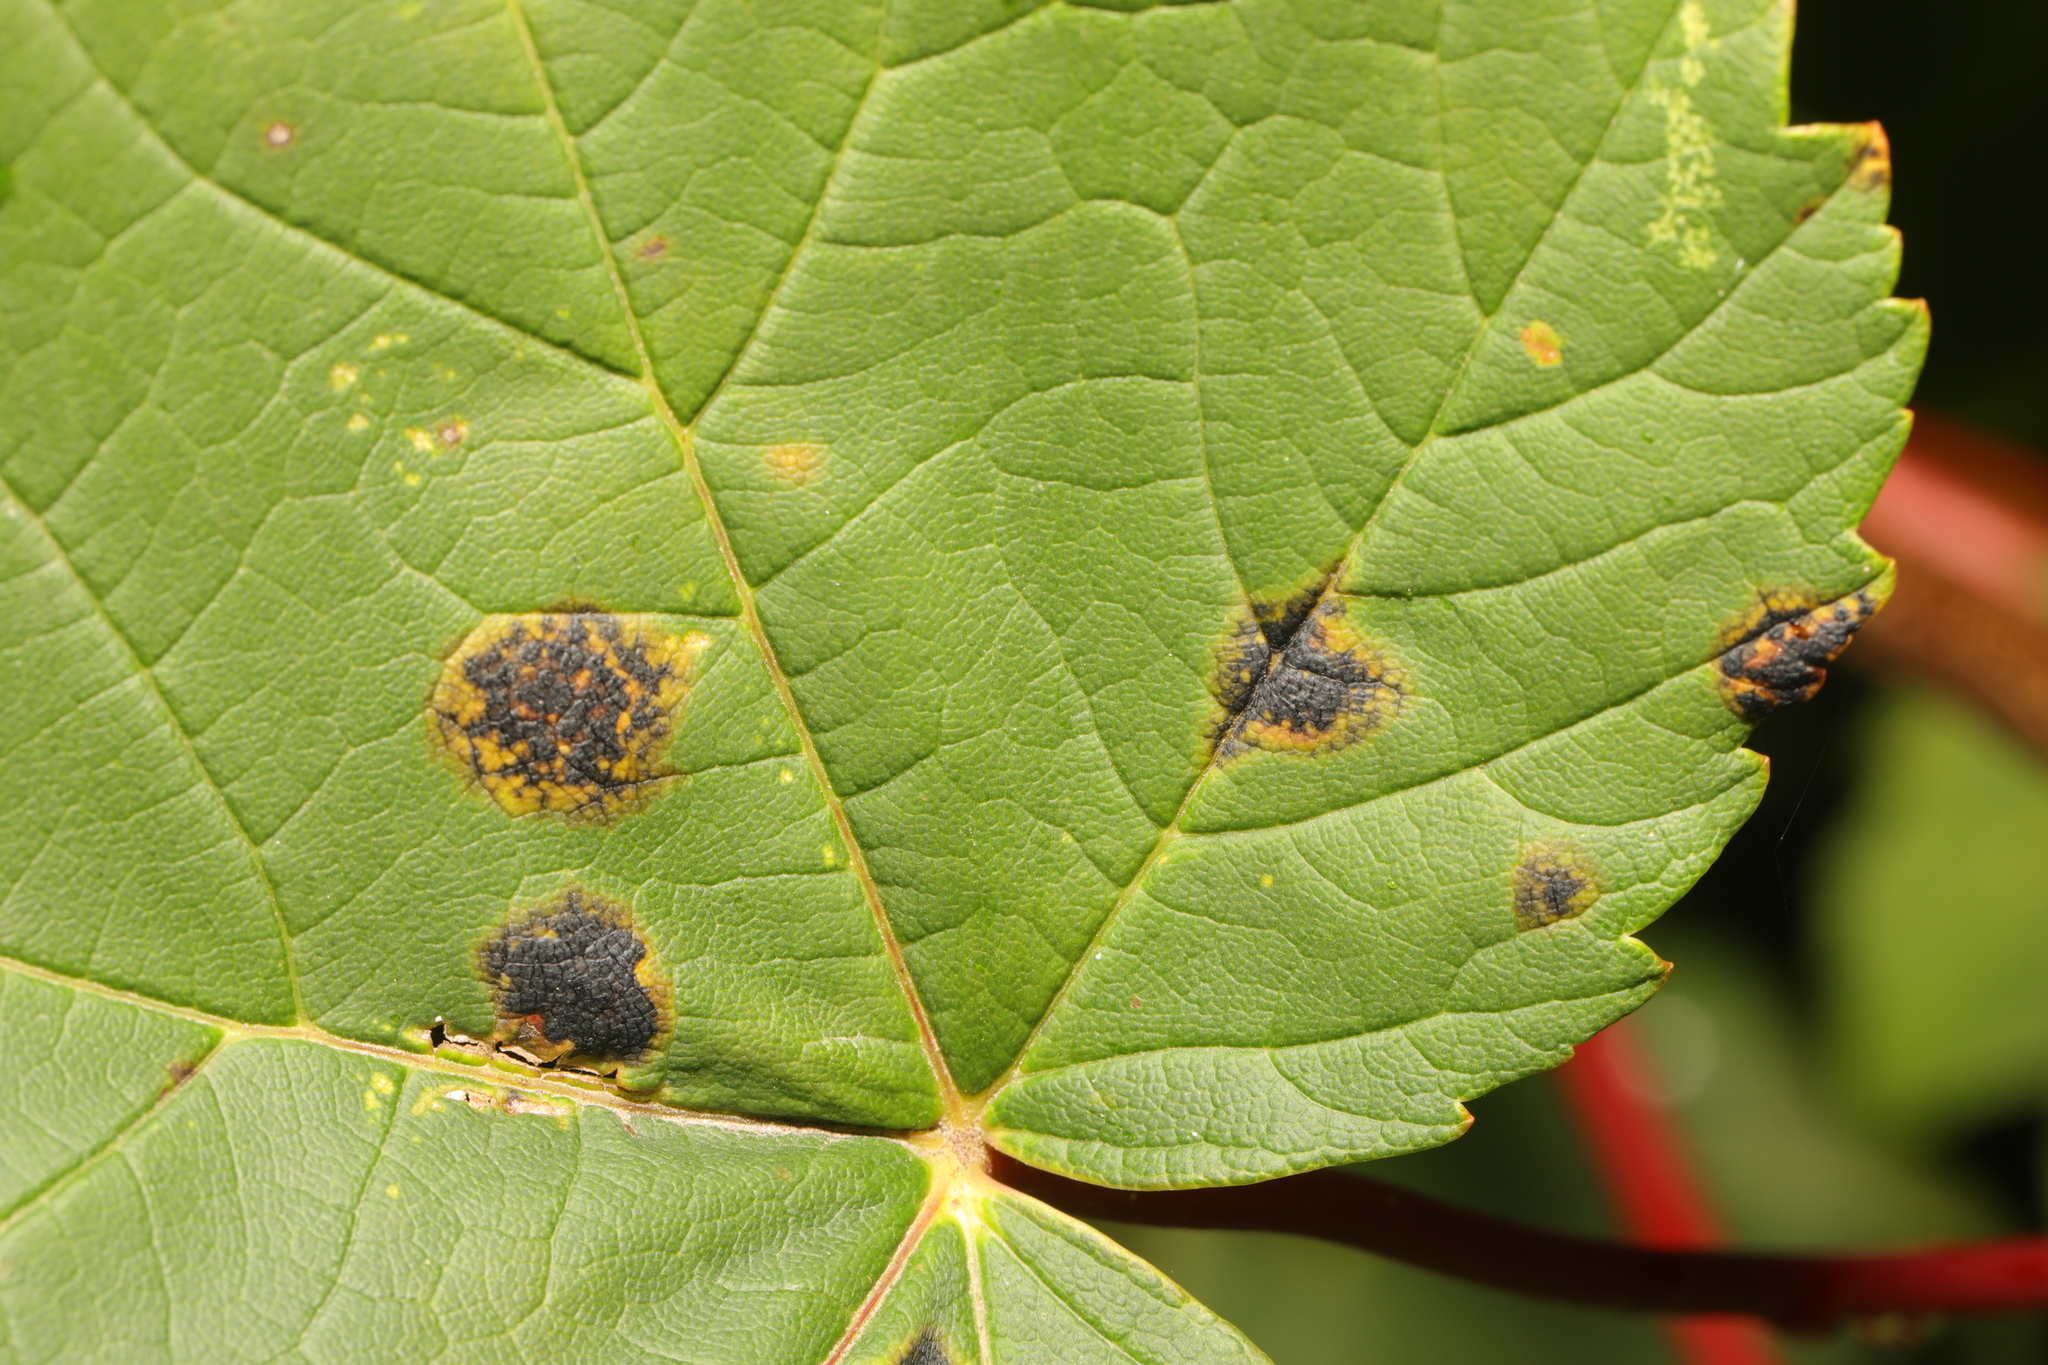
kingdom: Fungi
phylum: Ascomycota
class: Leotiomycetes
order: Rhytismatales
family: Rhytismataceae
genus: Rhytisma
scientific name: Rhytisma acerinum
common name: European tar spot
